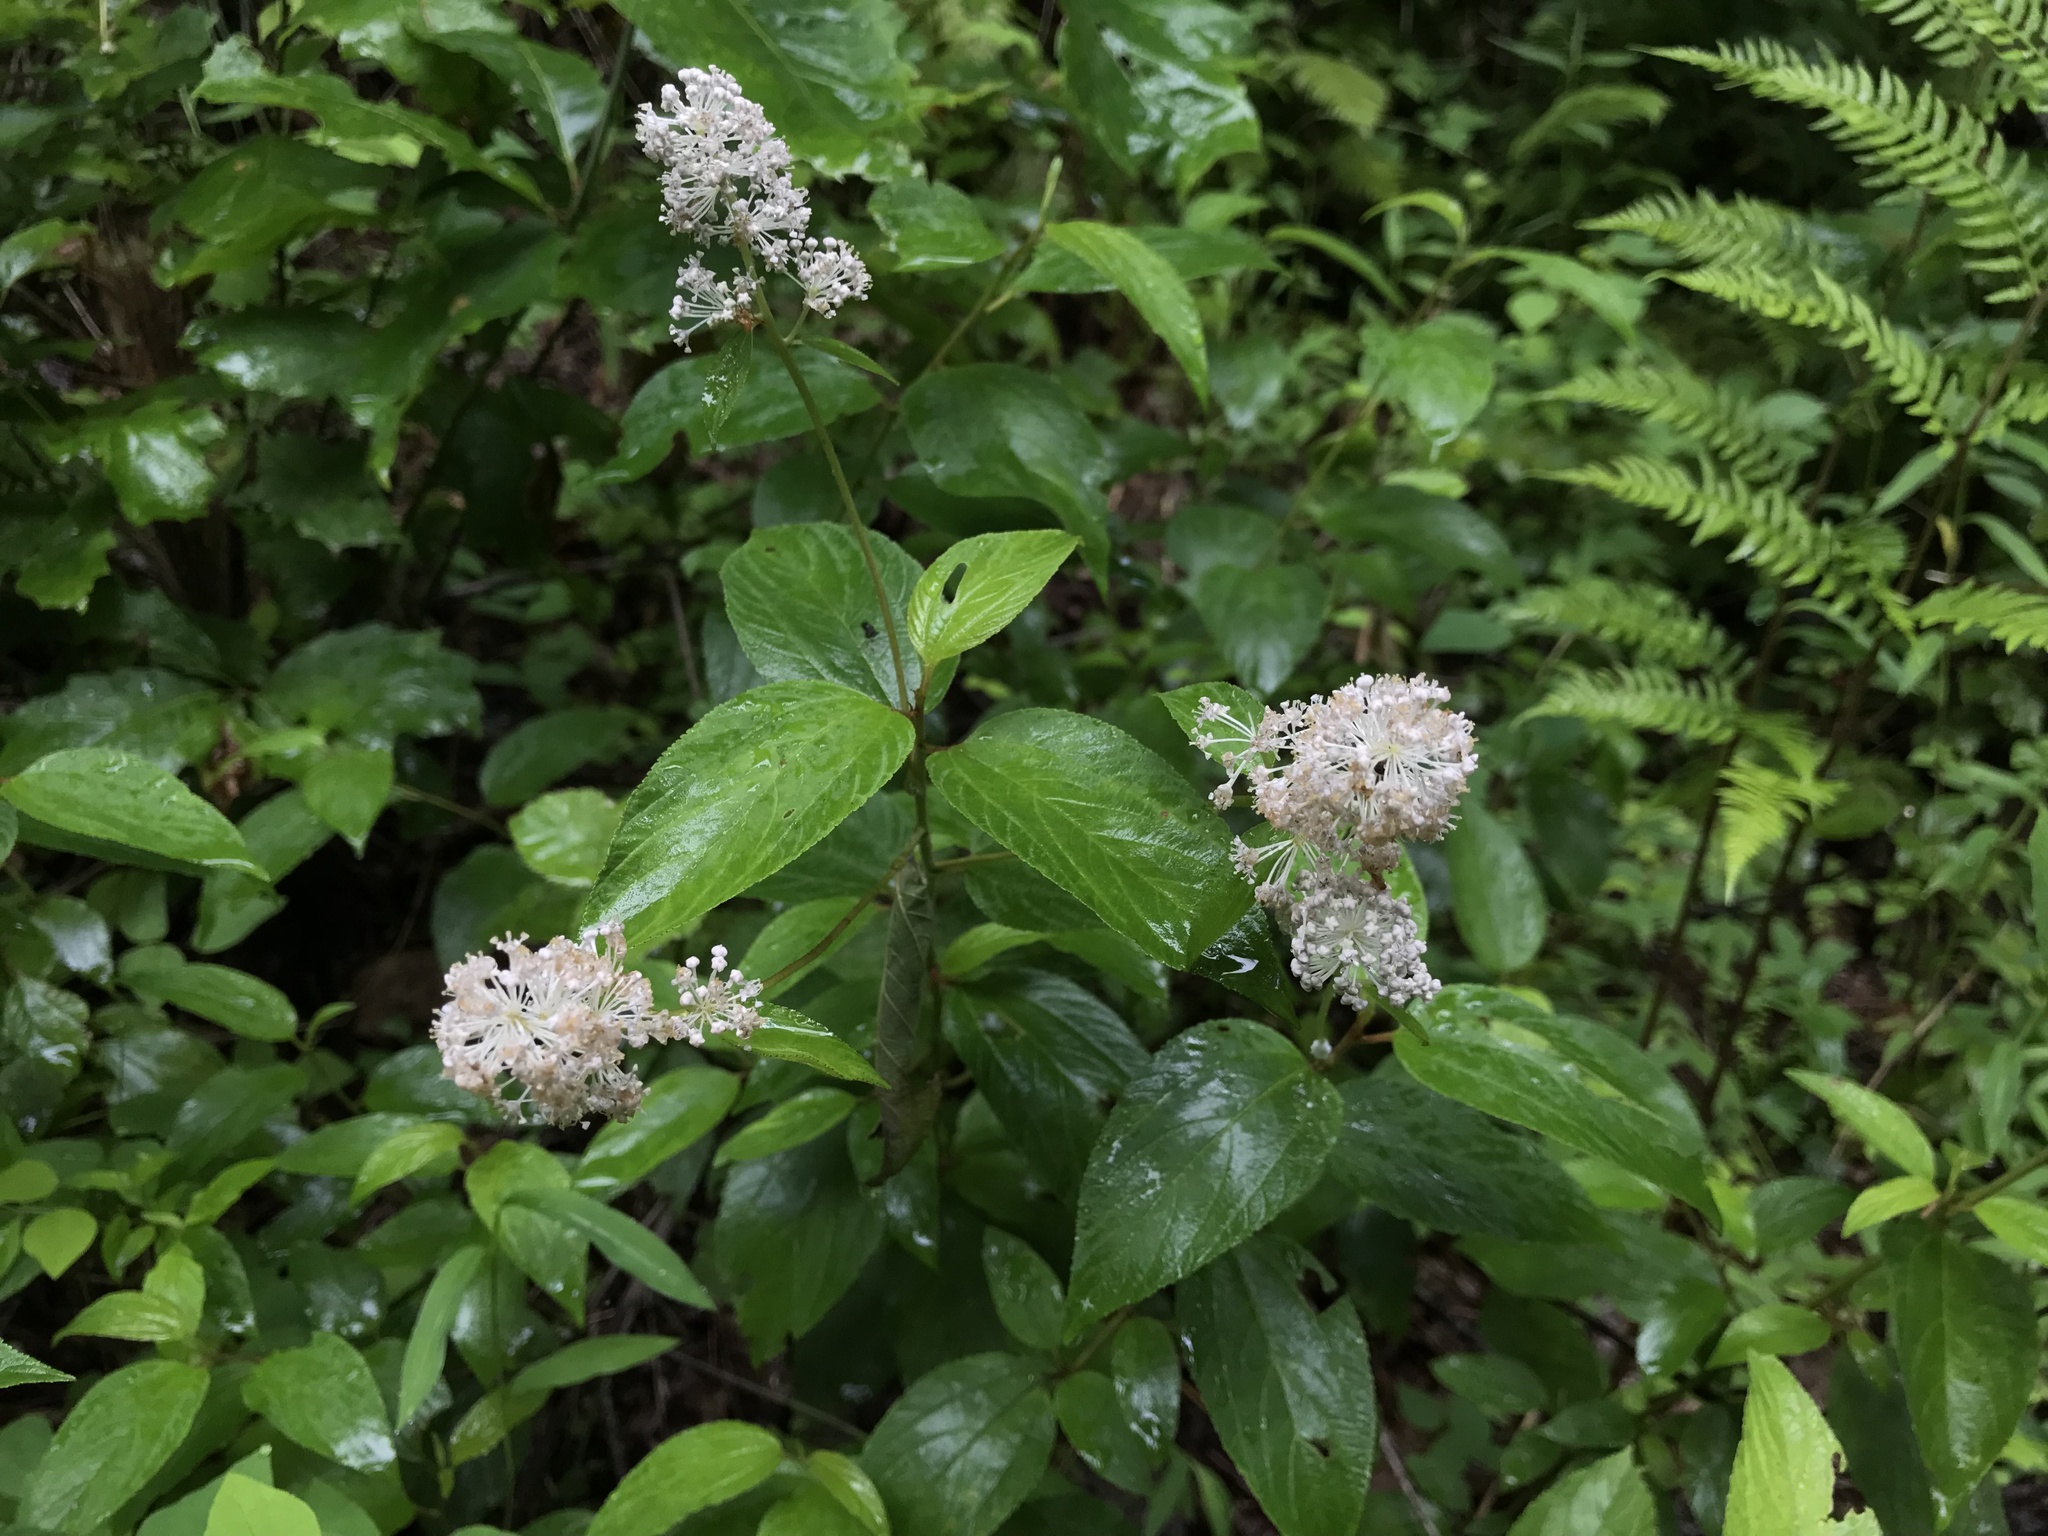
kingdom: Plantae
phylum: Tracheophyta
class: Magnoliopsida
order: Rosales
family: Rhamnaceae
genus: Ceanothus
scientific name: Ceanothus americanus
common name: Redroot
